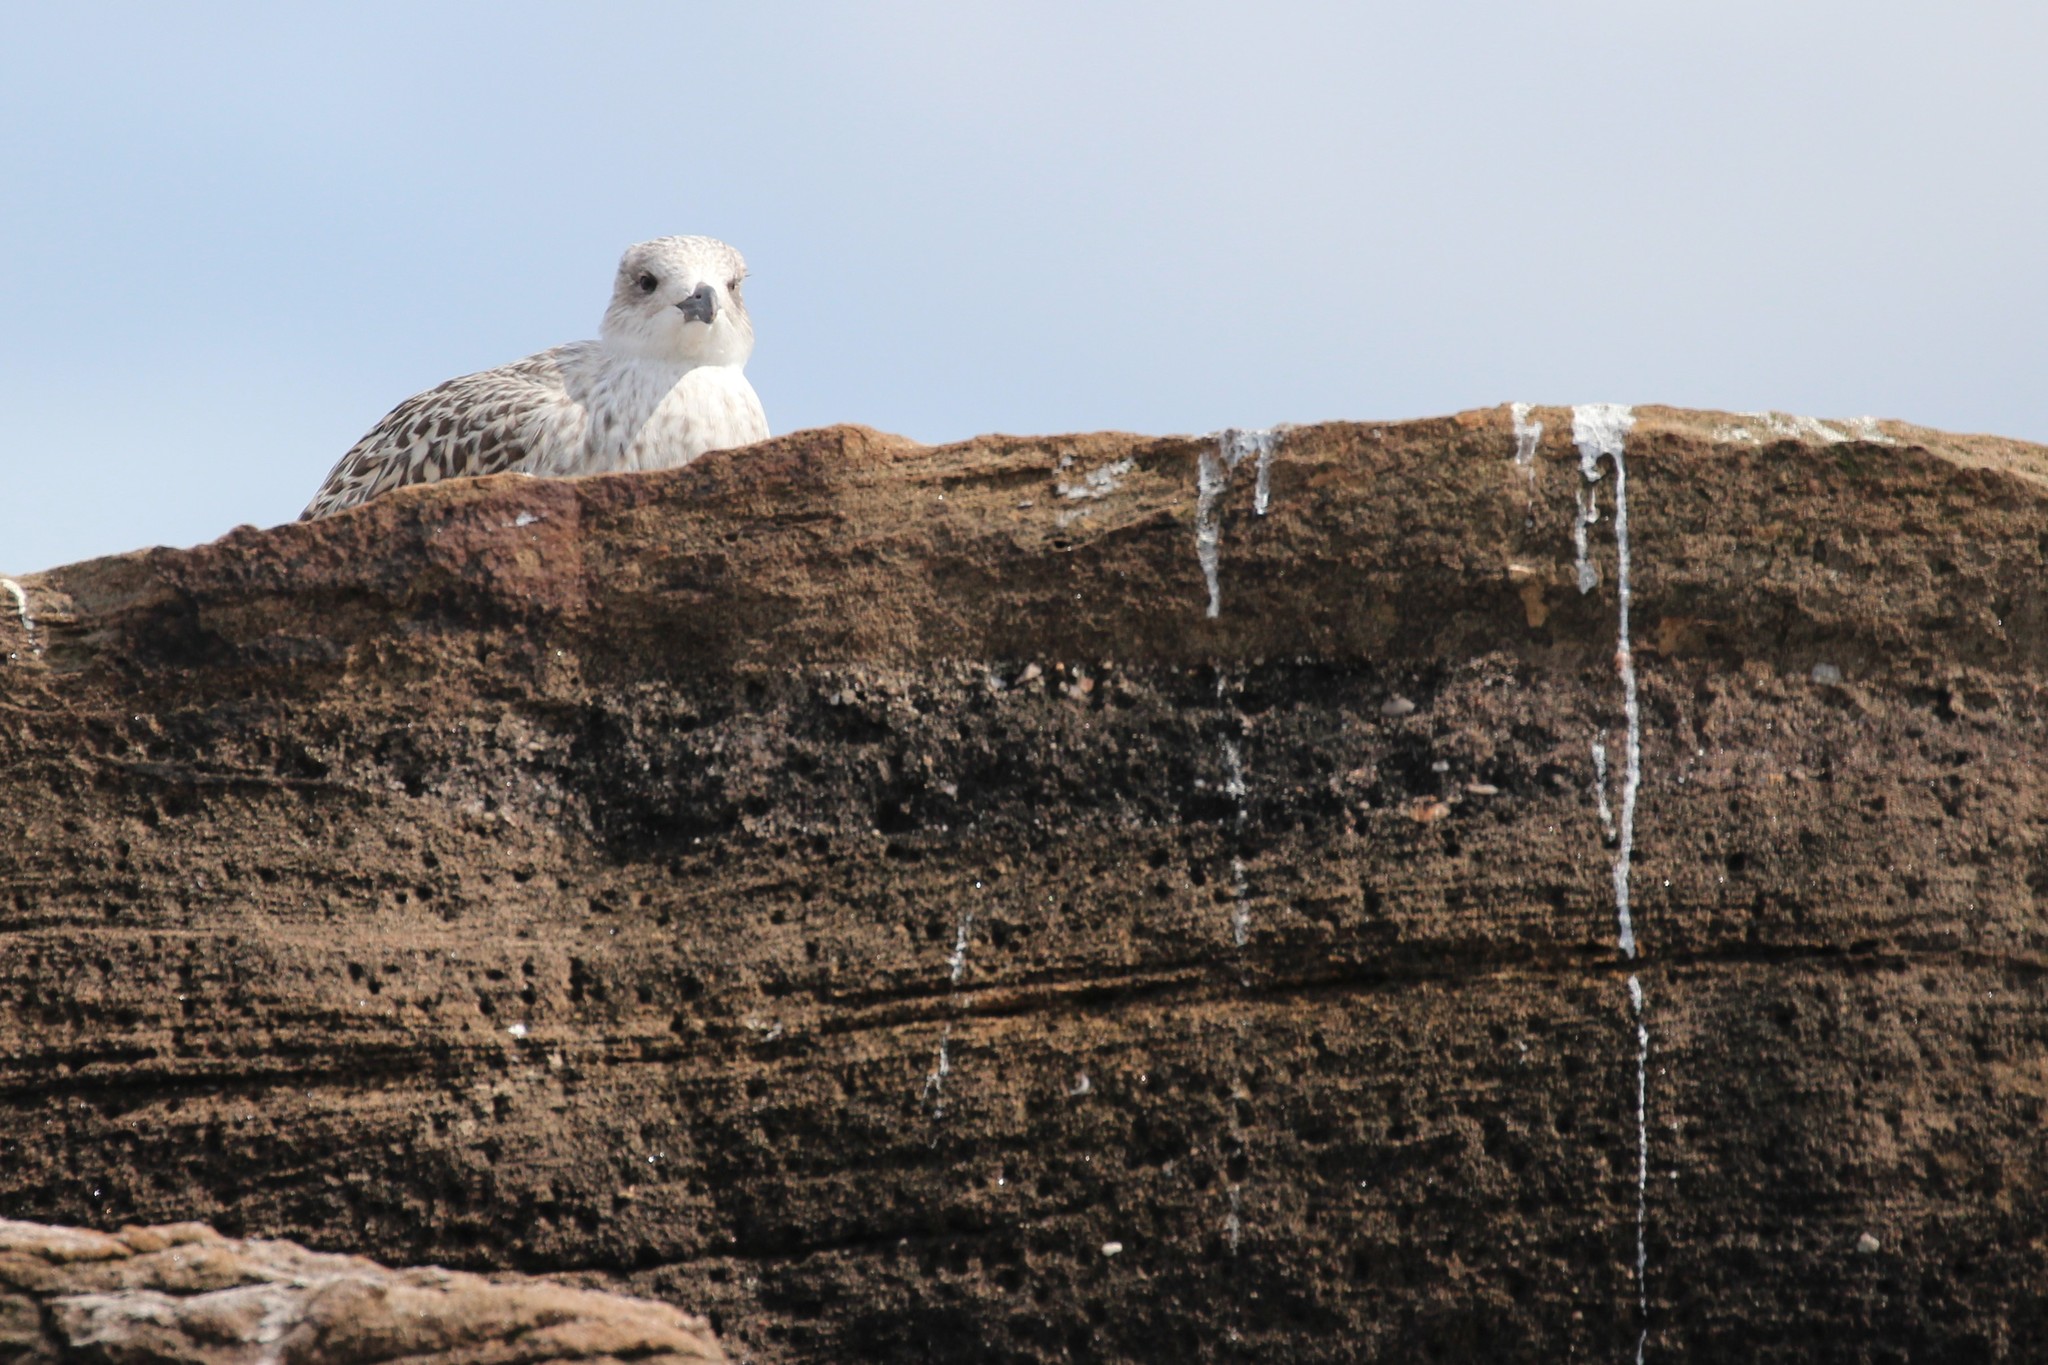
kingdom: Animalia
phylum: Chordata
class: Aves
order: Charadriiformes
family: Laridae
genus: Larus
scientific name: Larus marinus
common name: Great black-backed gull
